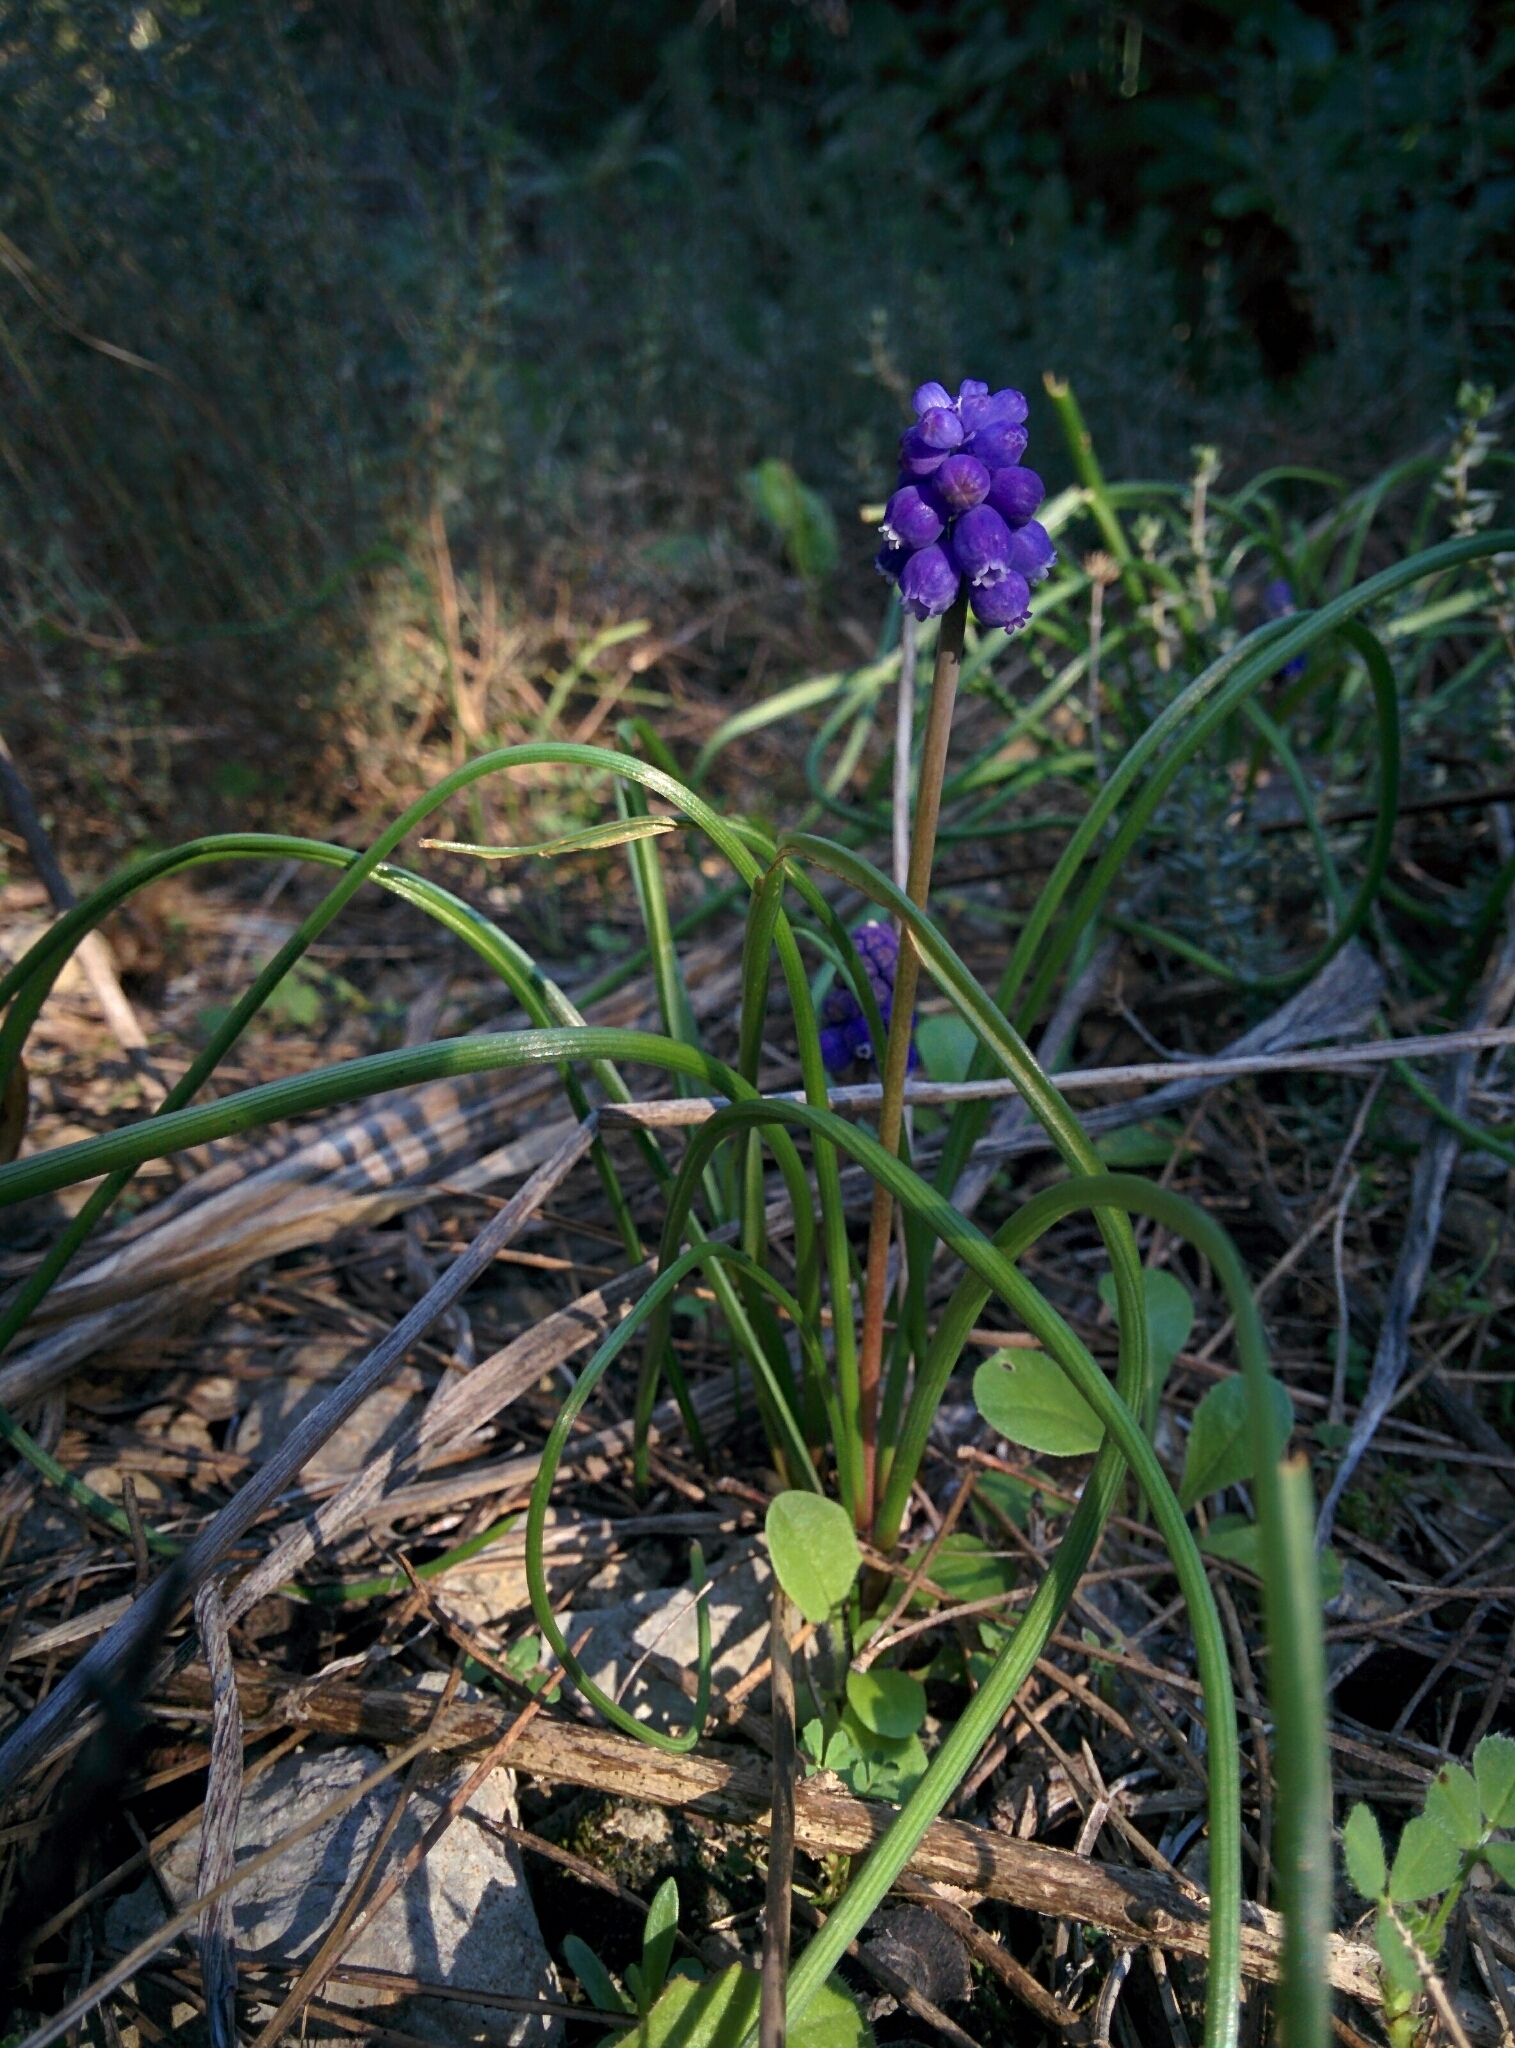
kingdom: Plantae
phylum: Tracheophyta
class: Liliopsida
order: Asparagales
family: Asparagaceae
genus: Muscari
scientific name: Muscari neglectum
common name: Grape-hyacinth
